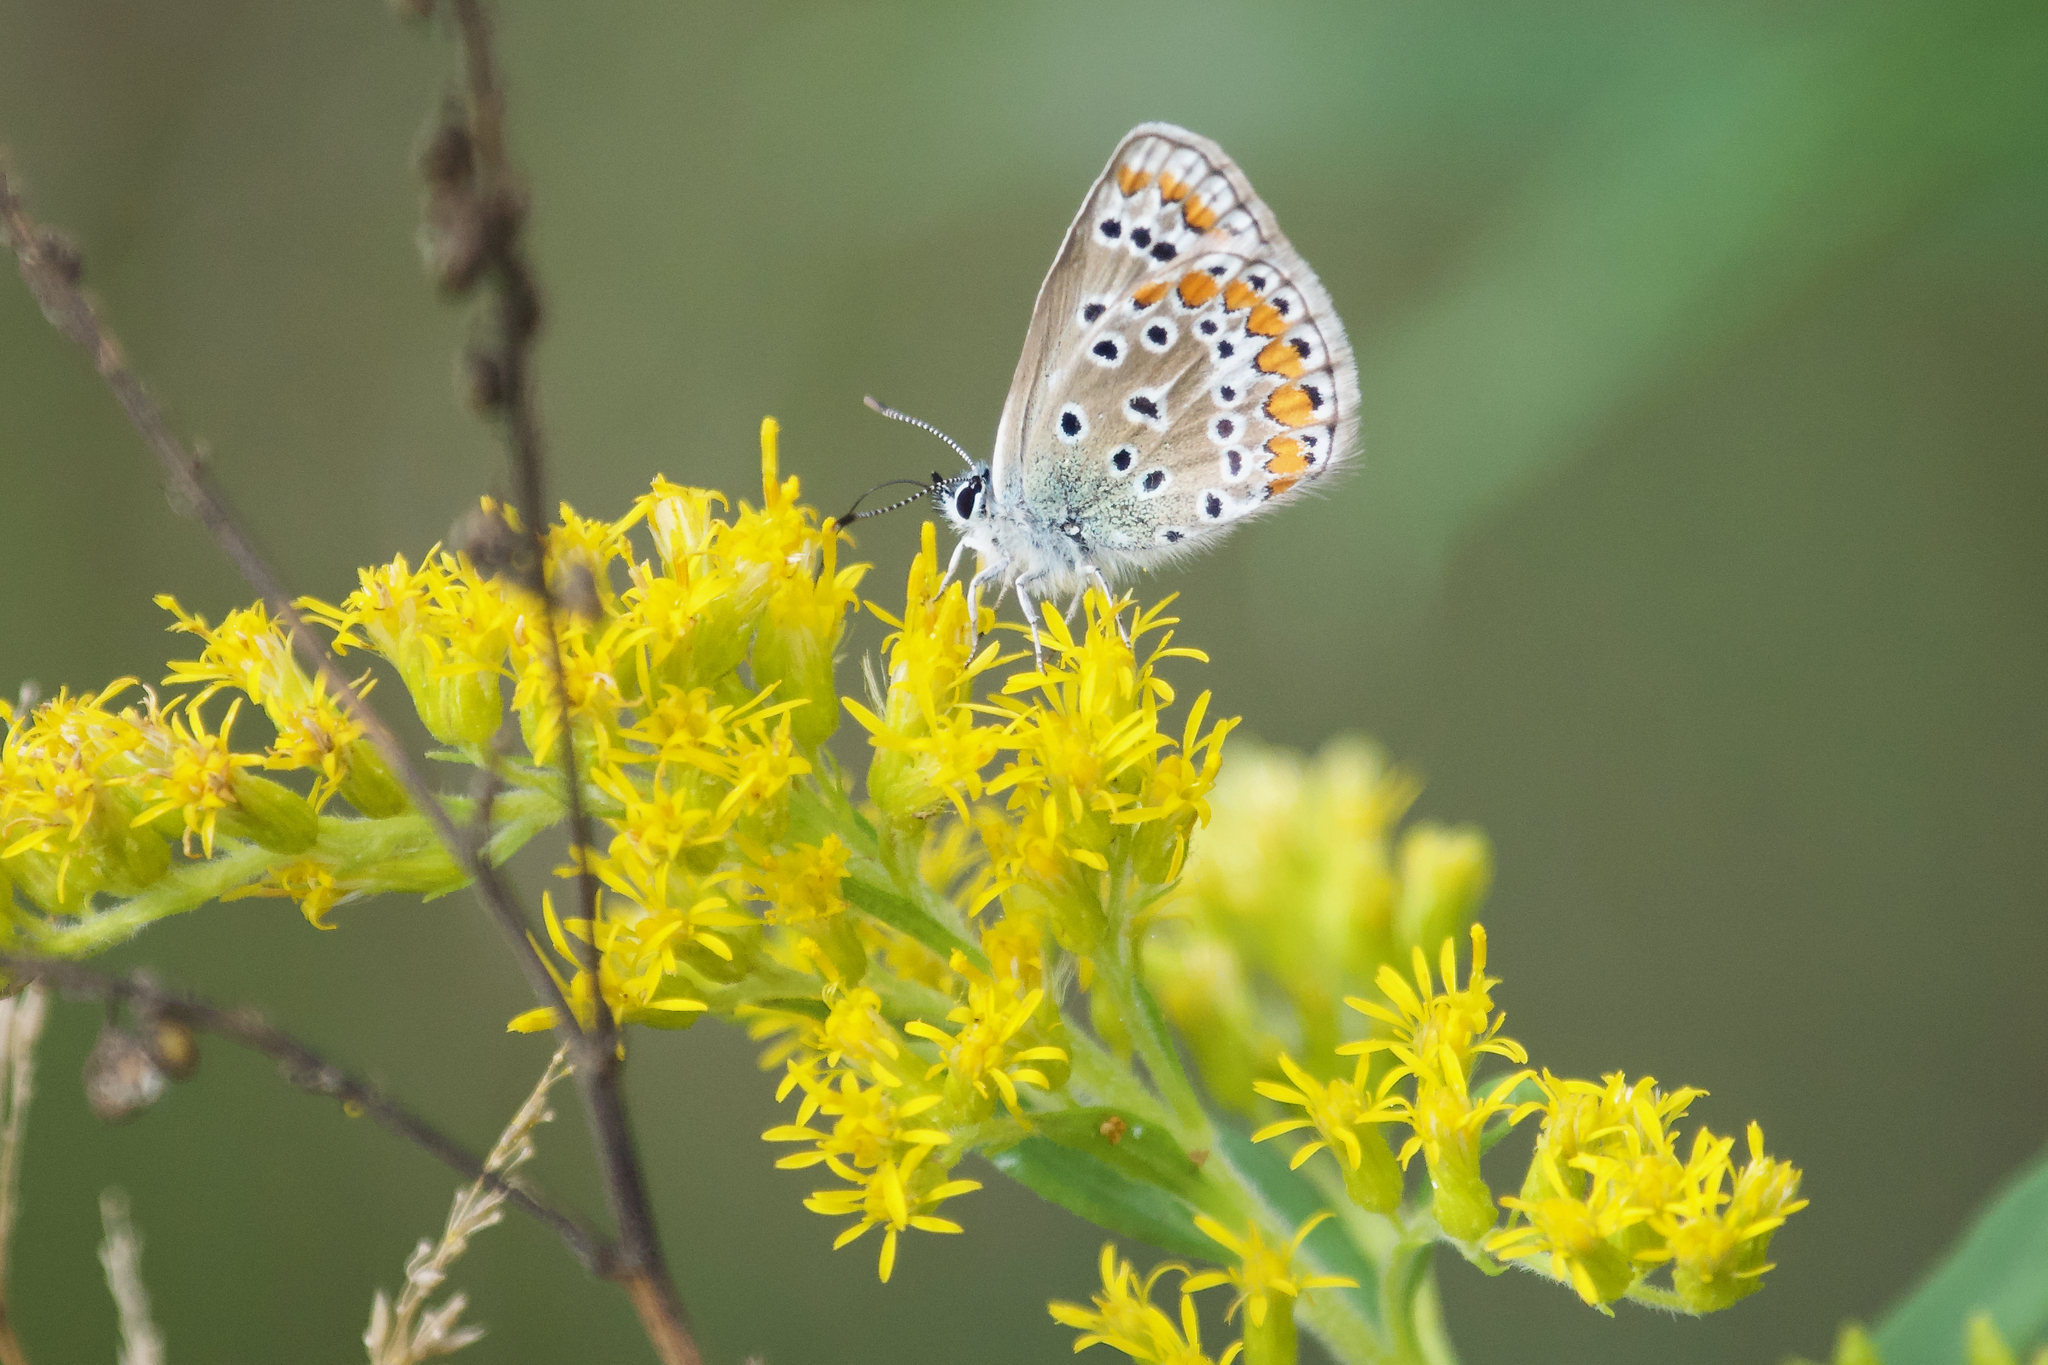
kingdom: Animalia
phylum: Arthropoda
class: Insecta
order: Lepidoptera
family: Lycaenidae
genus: Polyommatus
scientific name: Polyommatus icarus
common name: Common blue
